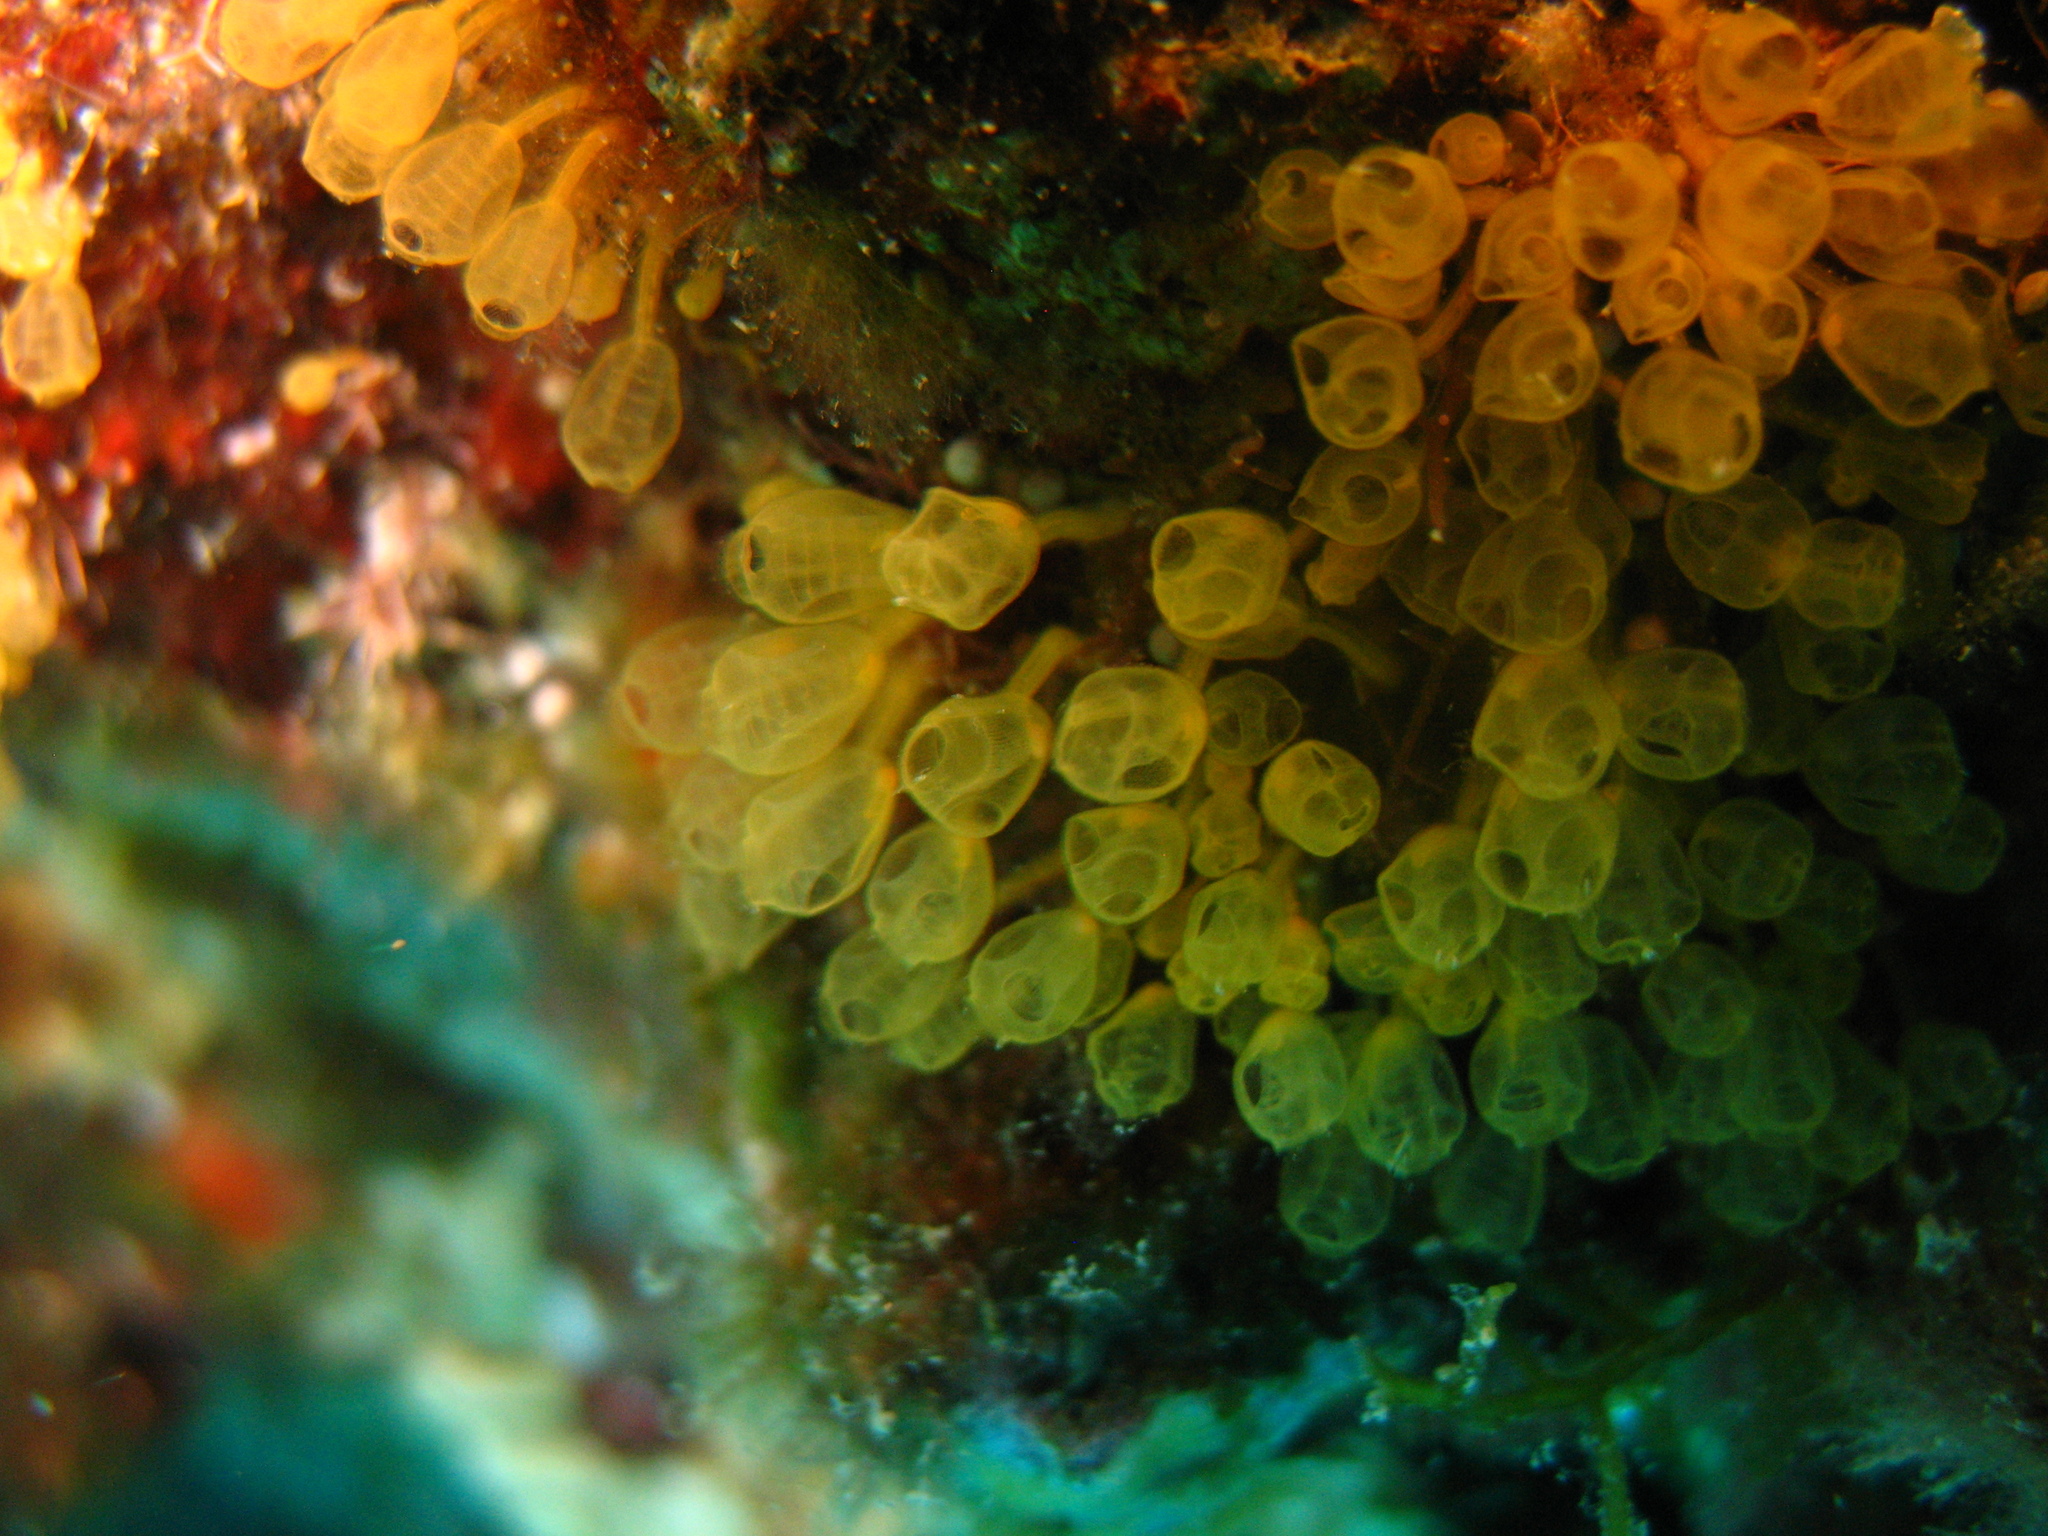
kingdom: Animalia
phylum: Chordata
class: Ascidiacea
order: Aplousobranchia
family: Clavelinidae
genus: Pycnoclavella
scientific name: Pycnoclavella communis
